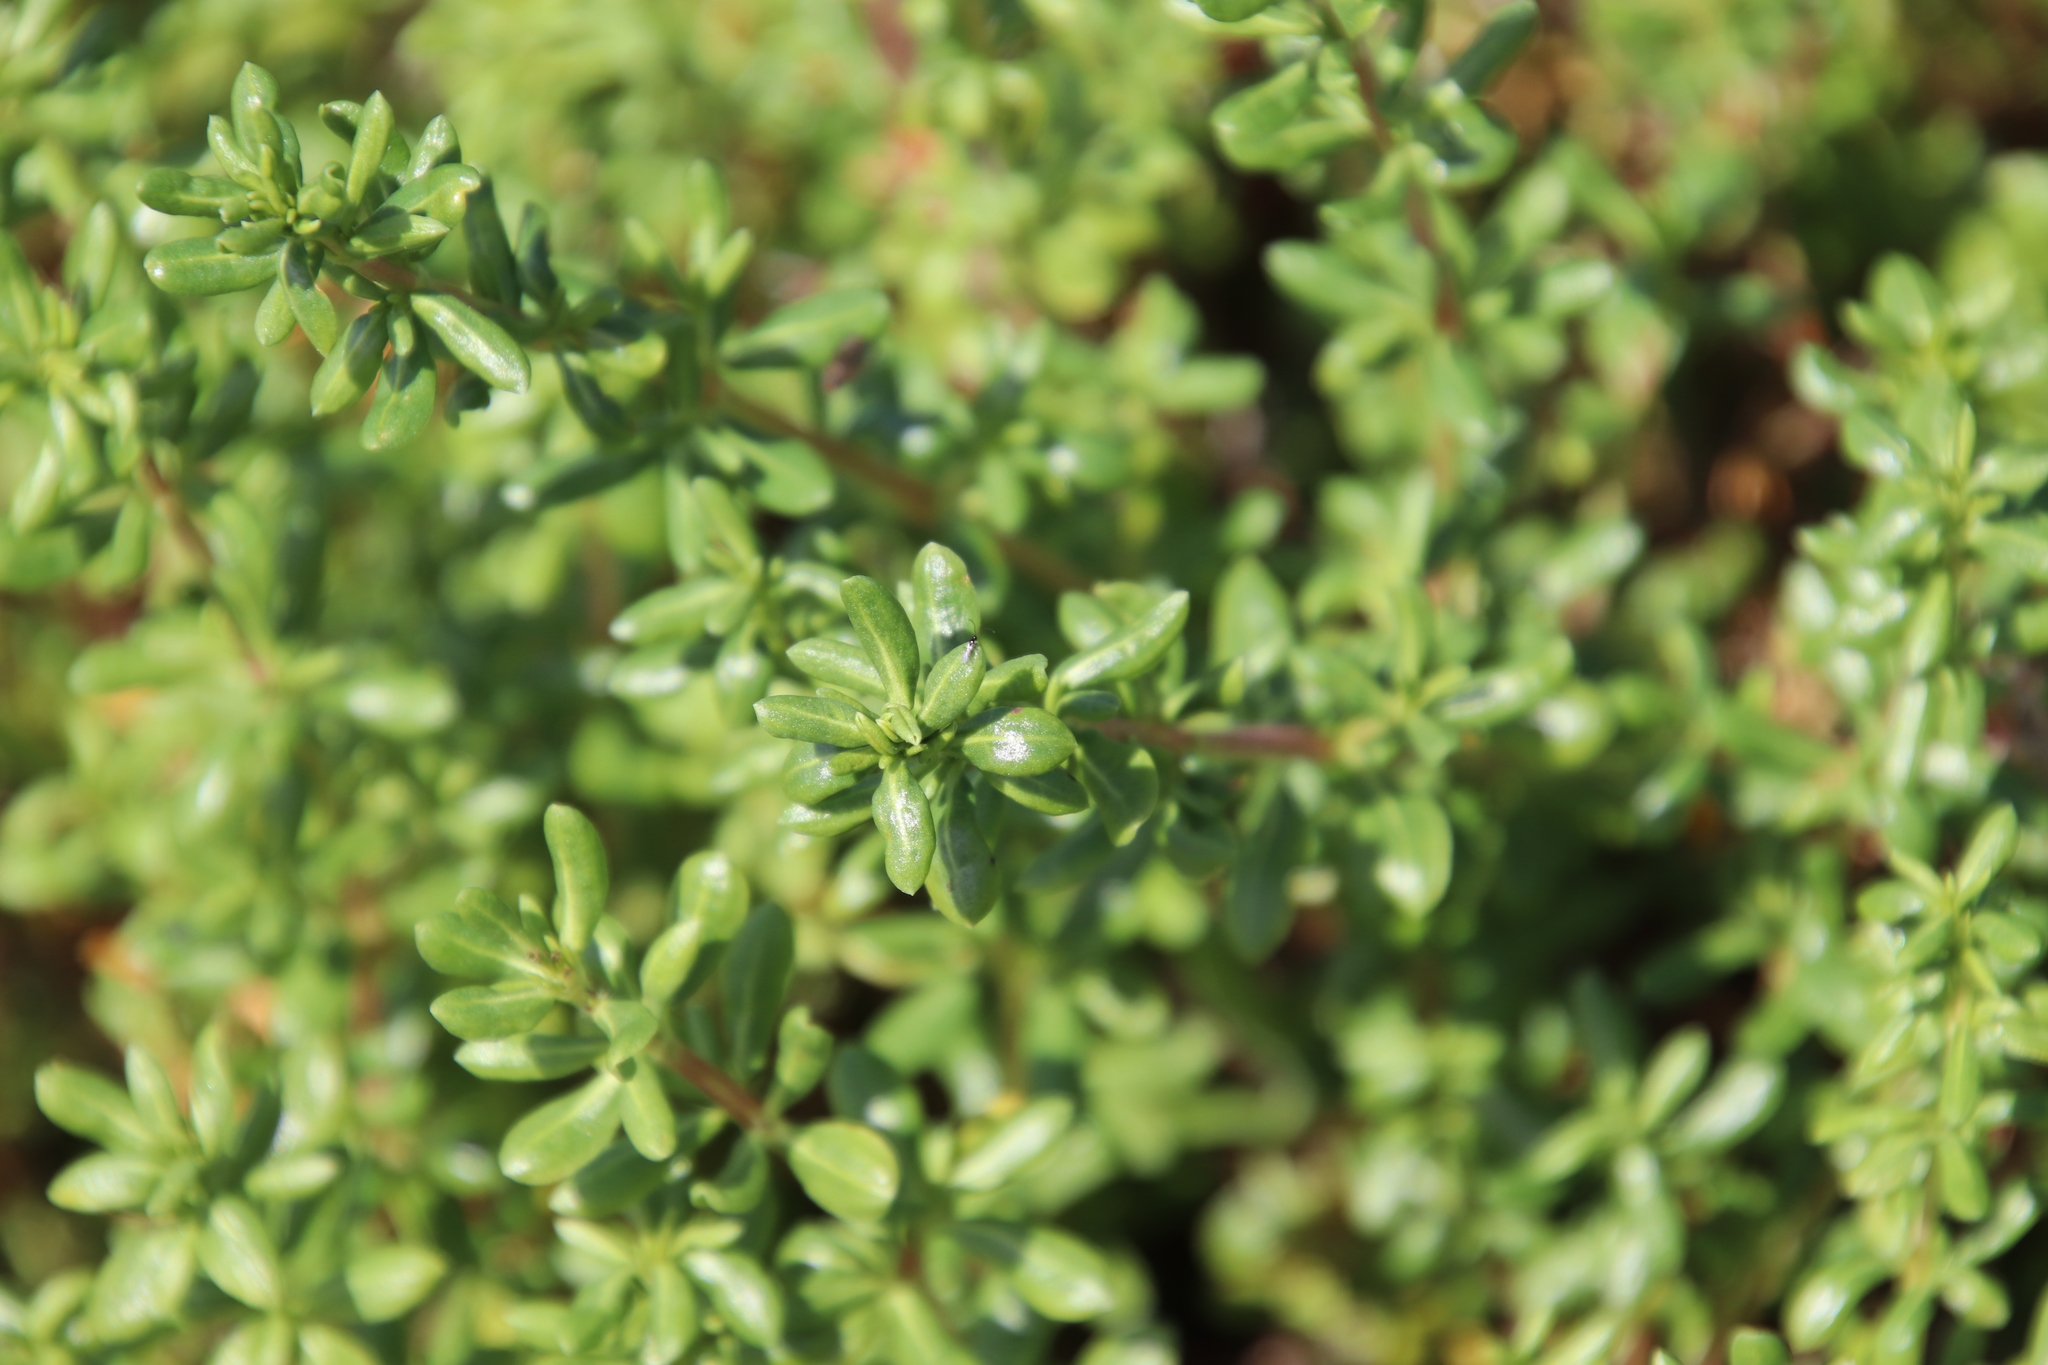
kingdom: Plantae
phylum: Tracheophyta
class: Magnoliopsida
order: Caryophyllales
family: Frankeniaceae
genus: Frankenia
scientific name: Frankenia salina
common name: Alkali seaheath
